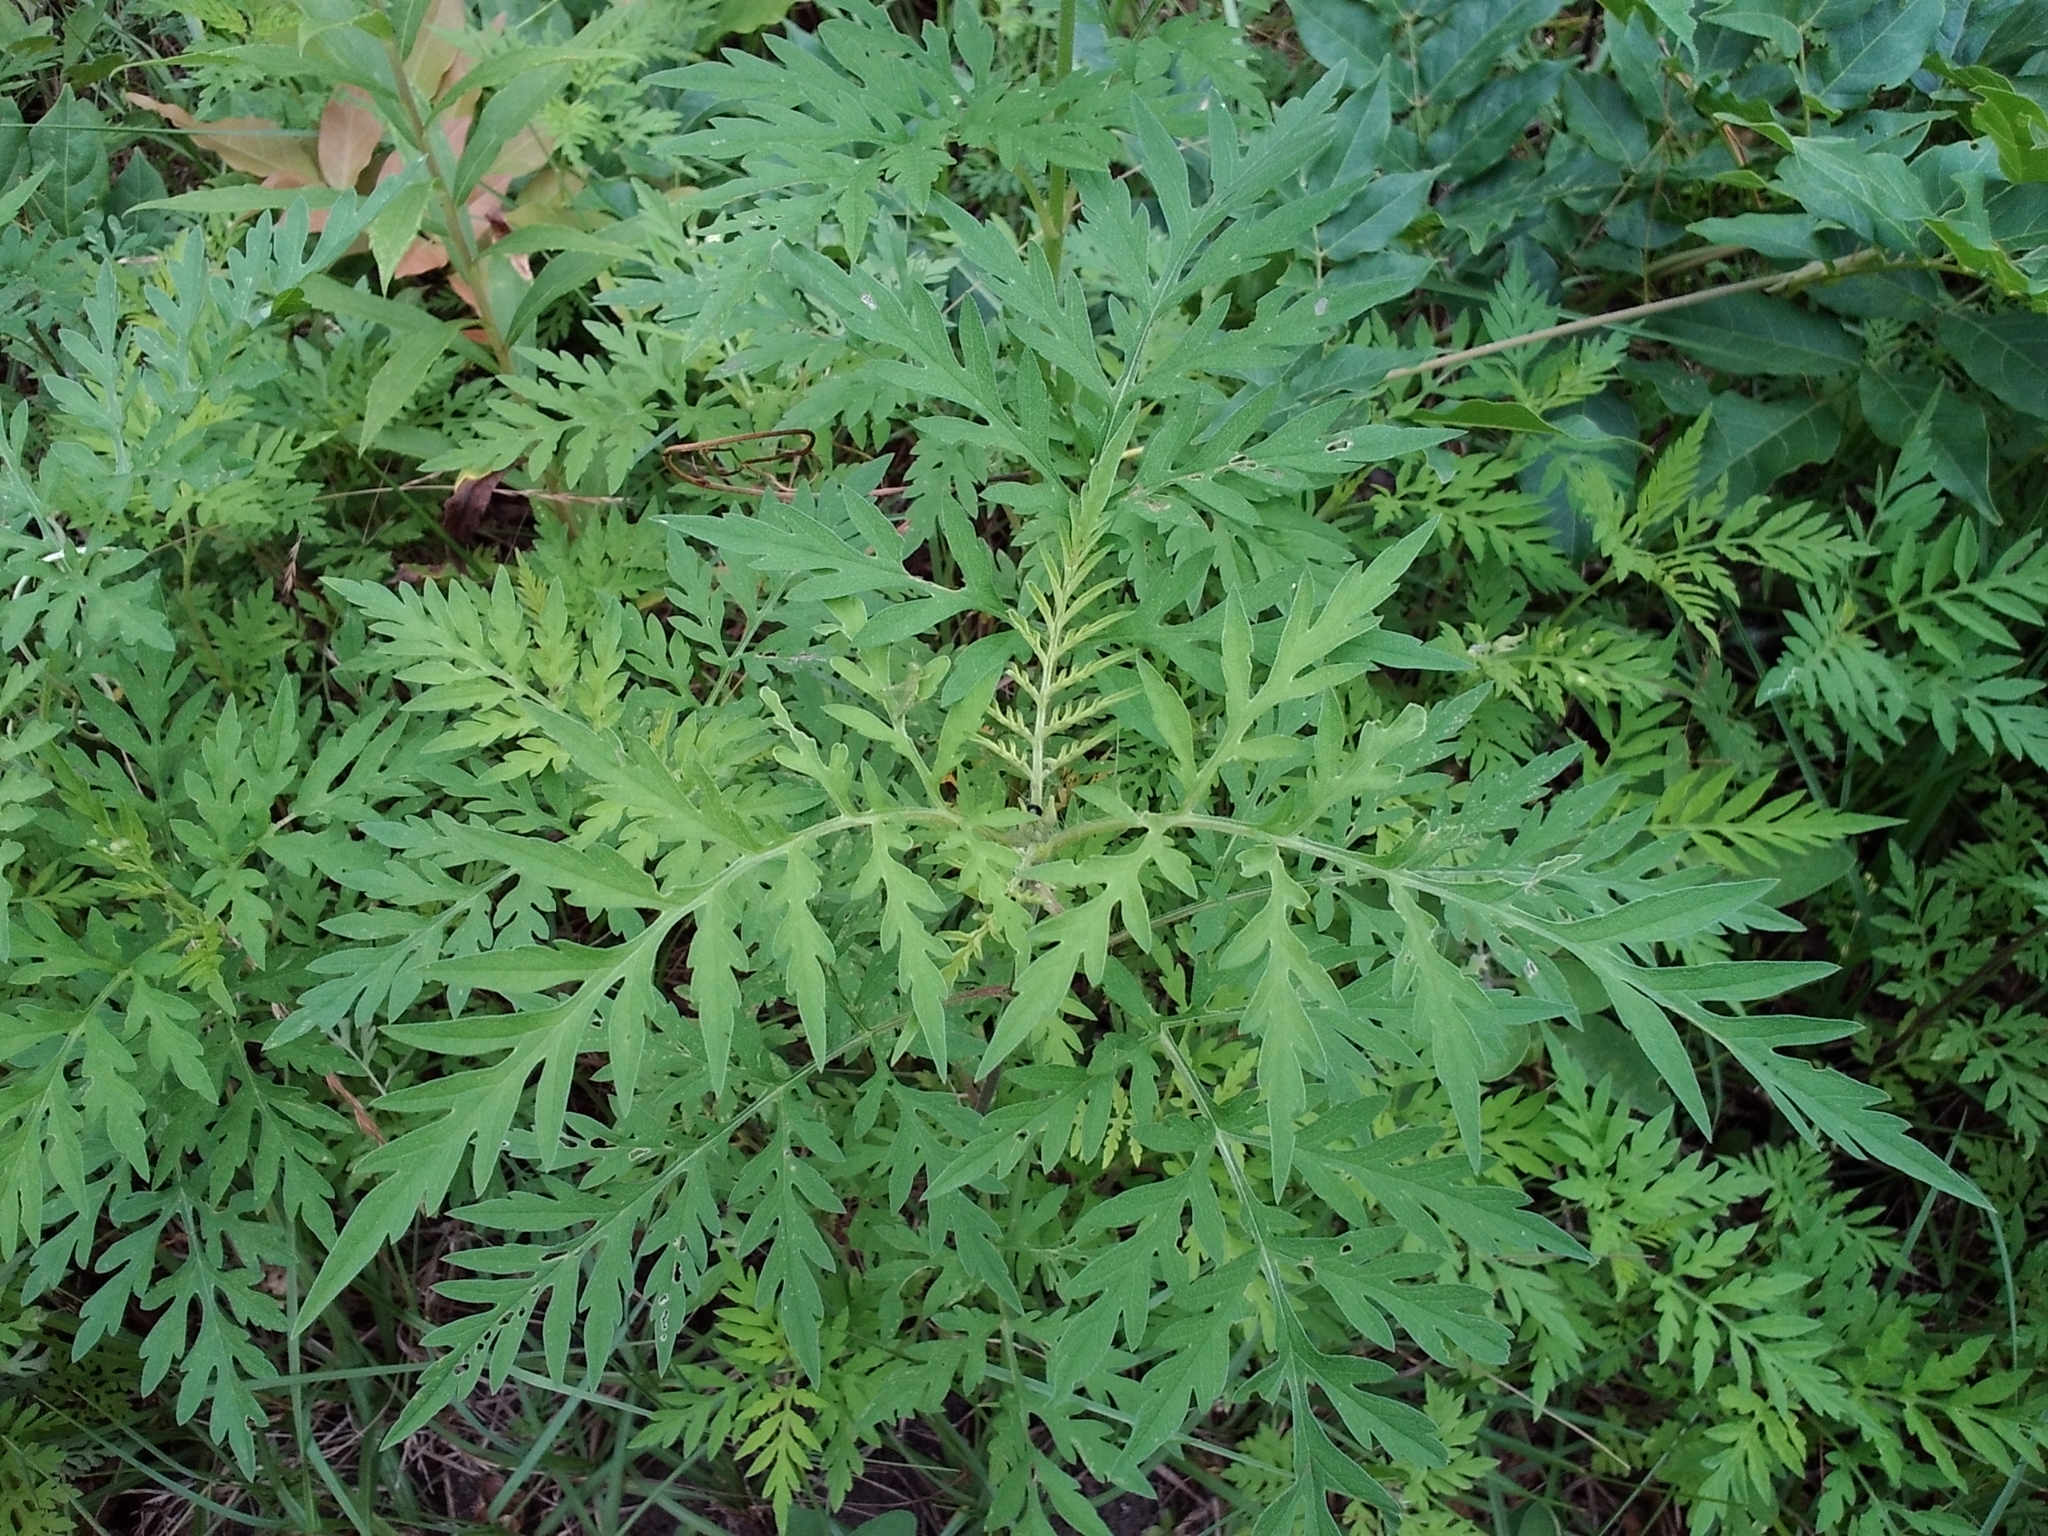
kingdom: Plantae
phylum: Tracheophyta
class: Magnoliopsida
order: Asterales
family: Asteraceae
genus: Ambrosia
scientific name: Ambrosia artemisiifolia
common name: Annual ragweed
